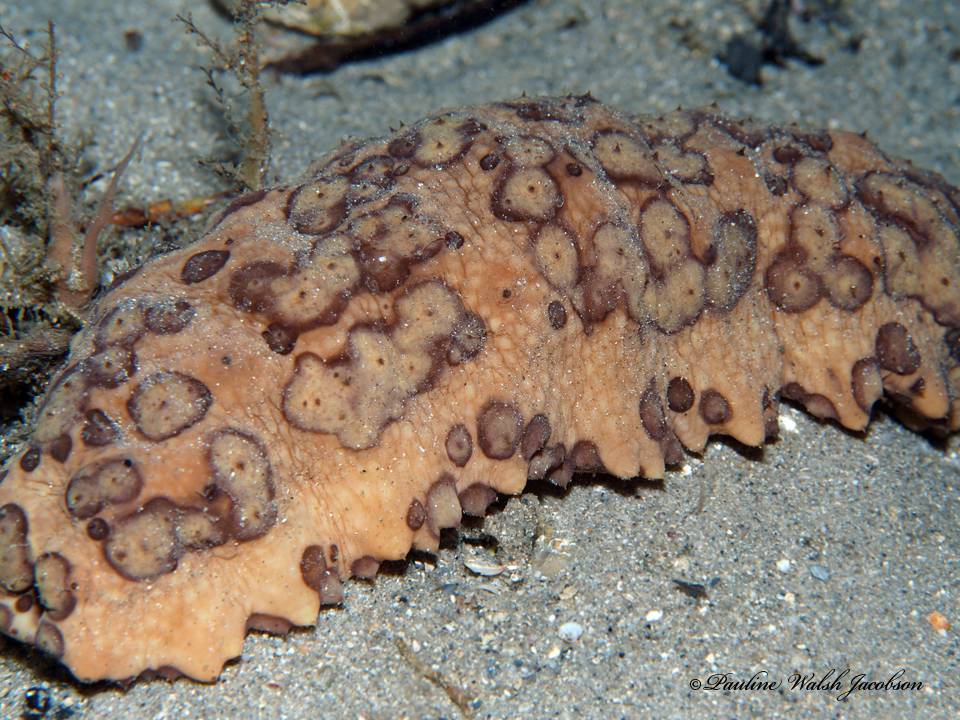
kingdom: Animalia
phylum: Echinodermata
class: Holothuroidea
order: Synallactida
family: Stichopodidae
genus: Isostichopus
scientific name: Isostichopus badionotus
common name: Chocolate chip cucumber
